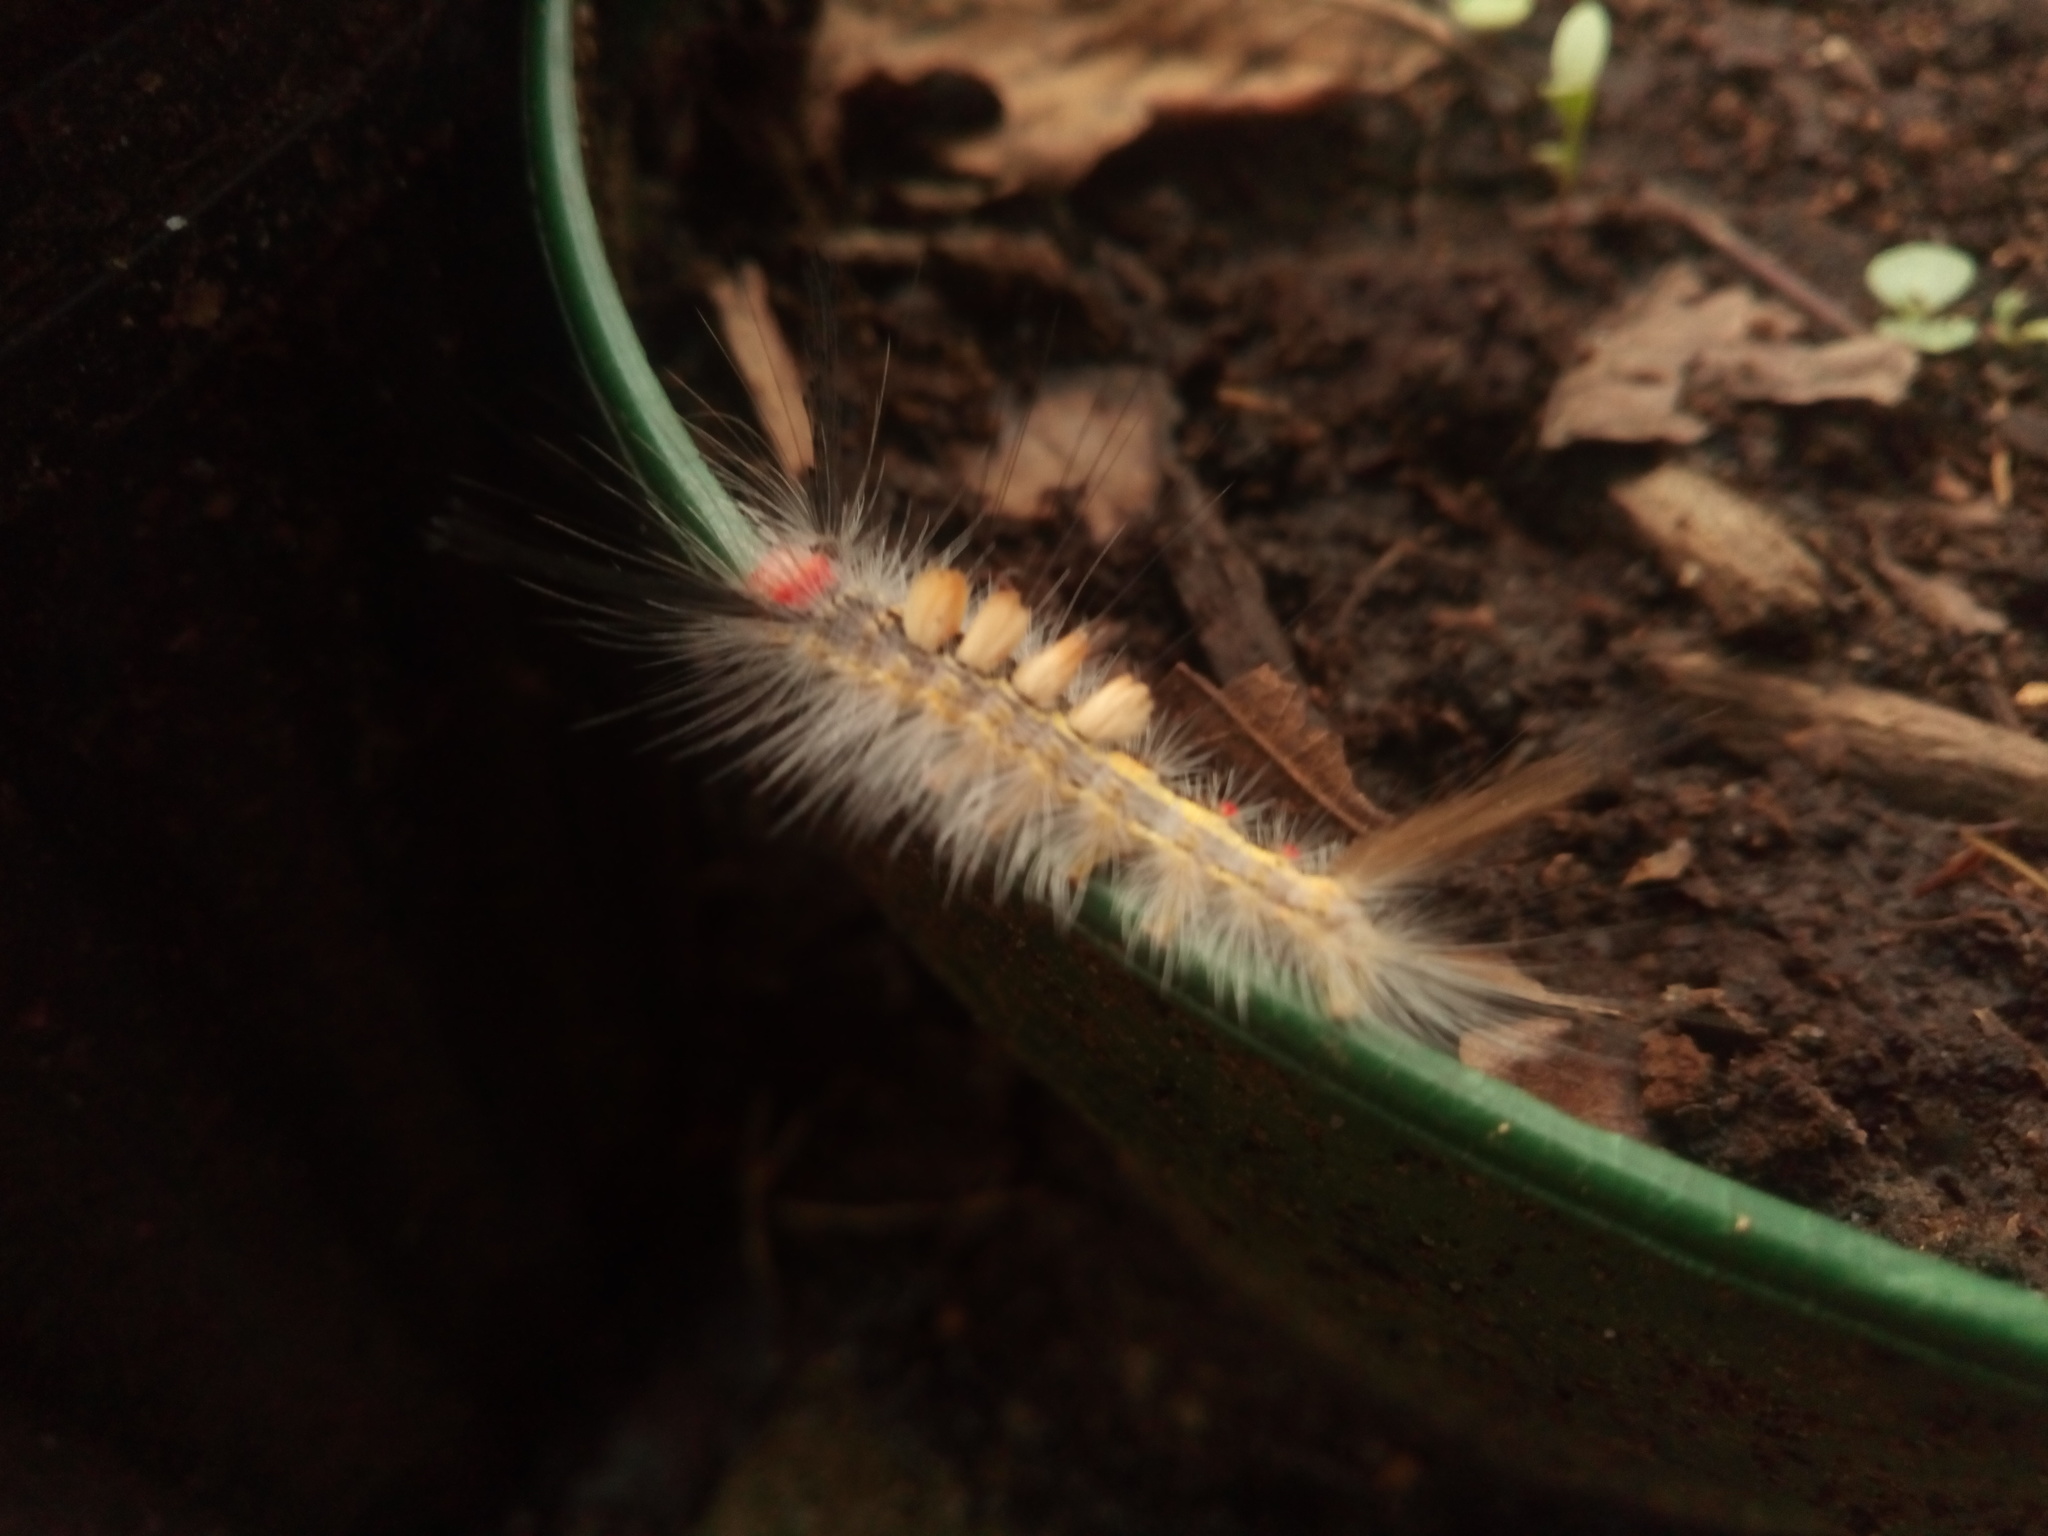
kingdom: Animalia
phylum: Arthropoda
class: Insecta
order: Lepidoptera
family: Erebidae
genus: Orgyia
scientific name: Orgyia leucostigma
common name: White-marked tussock moth
